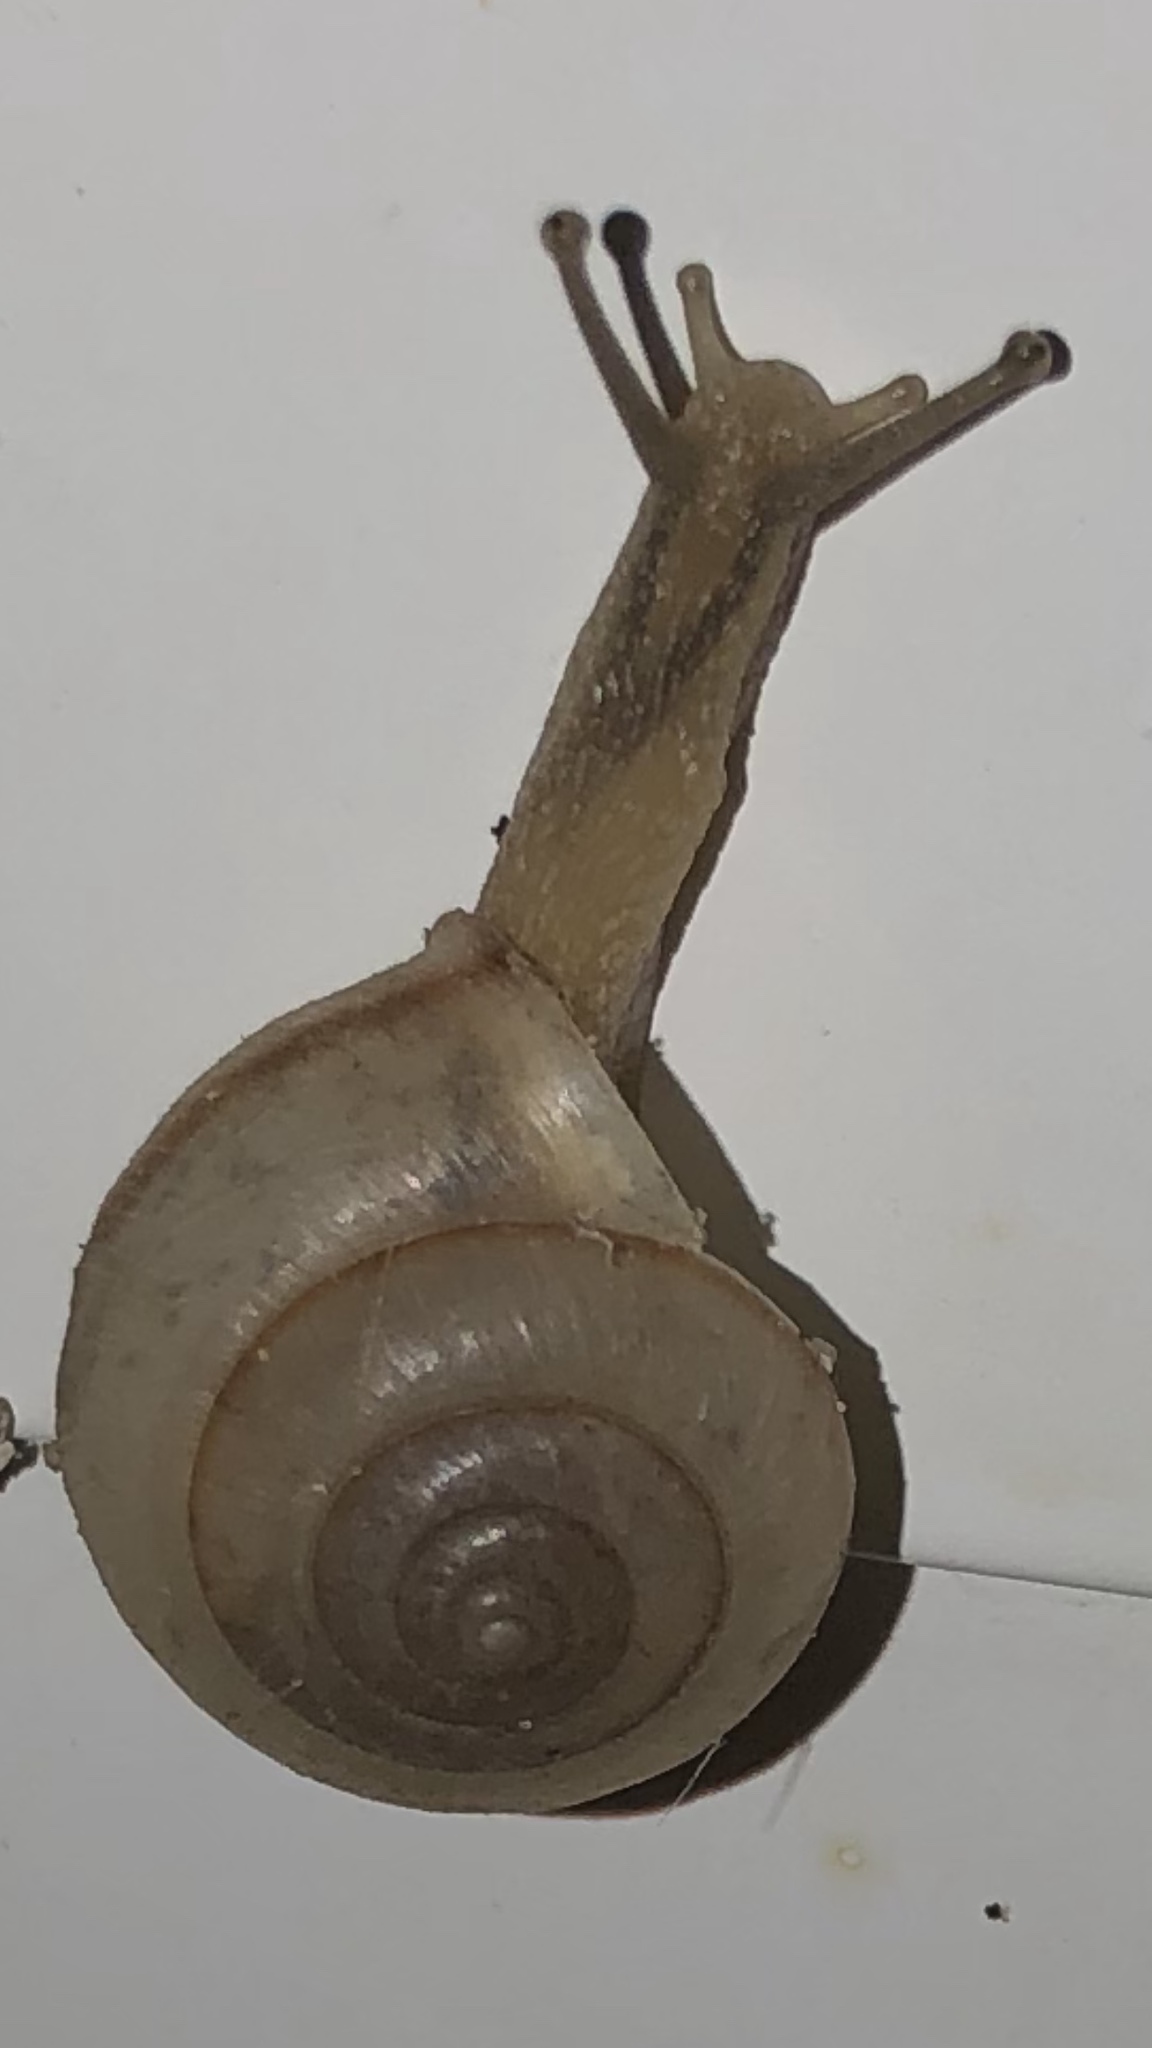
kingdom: Animalia
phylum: Mollusca
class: Gastropoda
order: Stylommatophora
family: Camaenidae
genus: Bradybaena
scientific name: Bradybaena similaris
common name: Asian trampsnail
